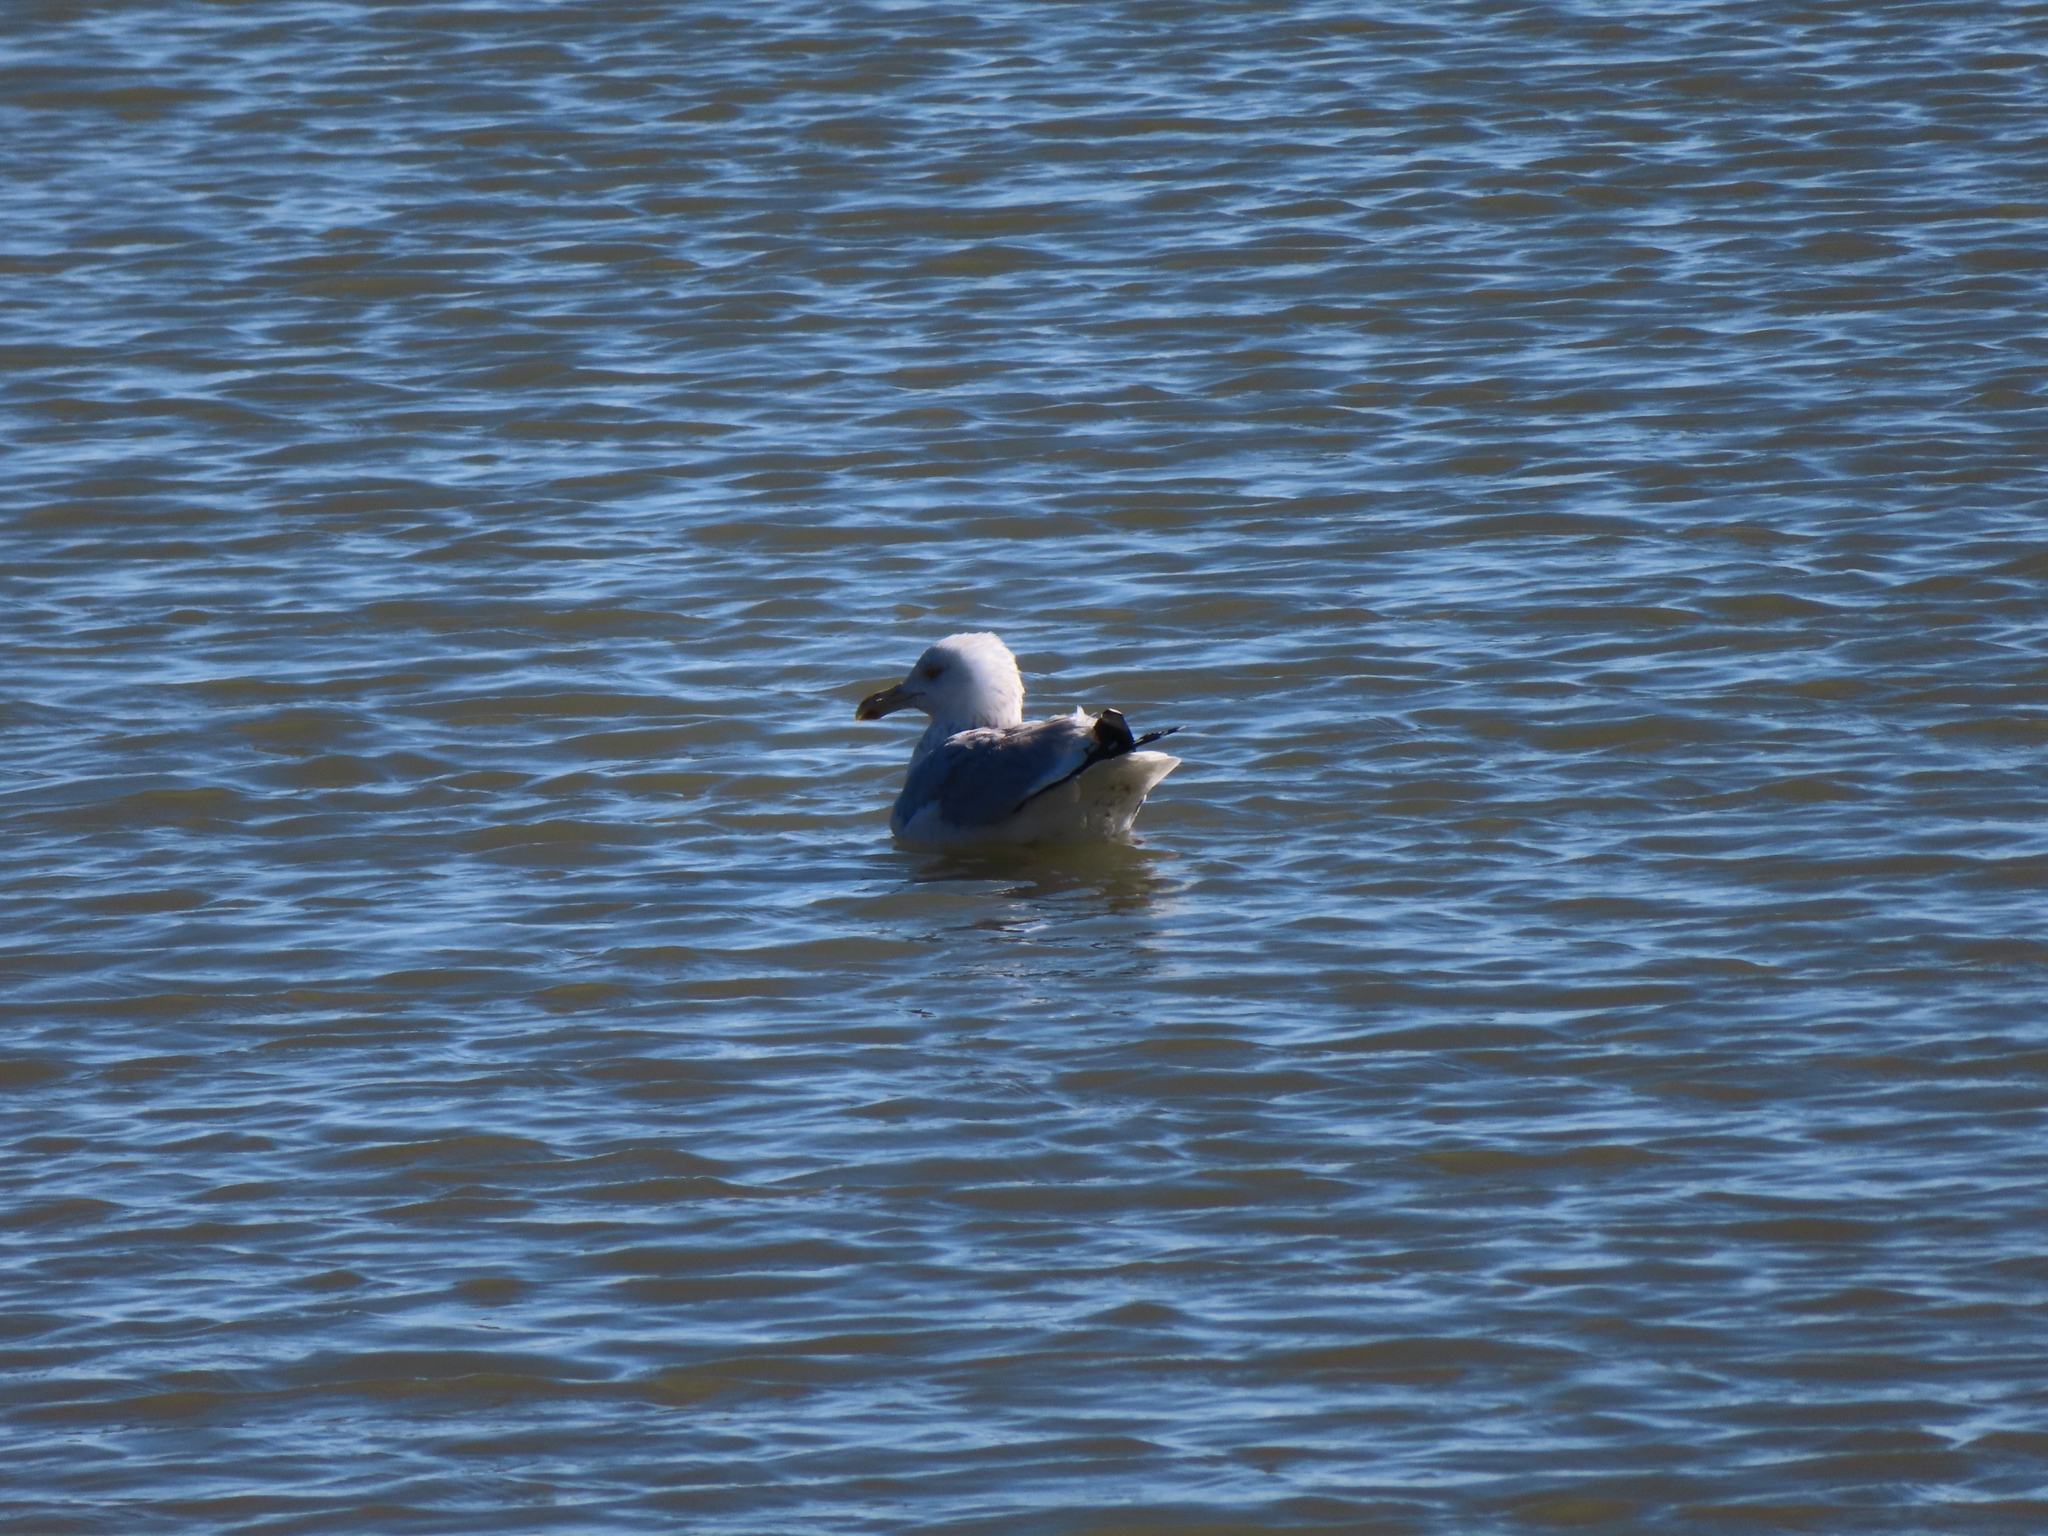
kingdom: Animalia
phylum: Chordata
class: Aves
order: Charadriiformes
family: Laridae
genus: Larus
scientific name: Larus argentatus
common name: Herring gull
